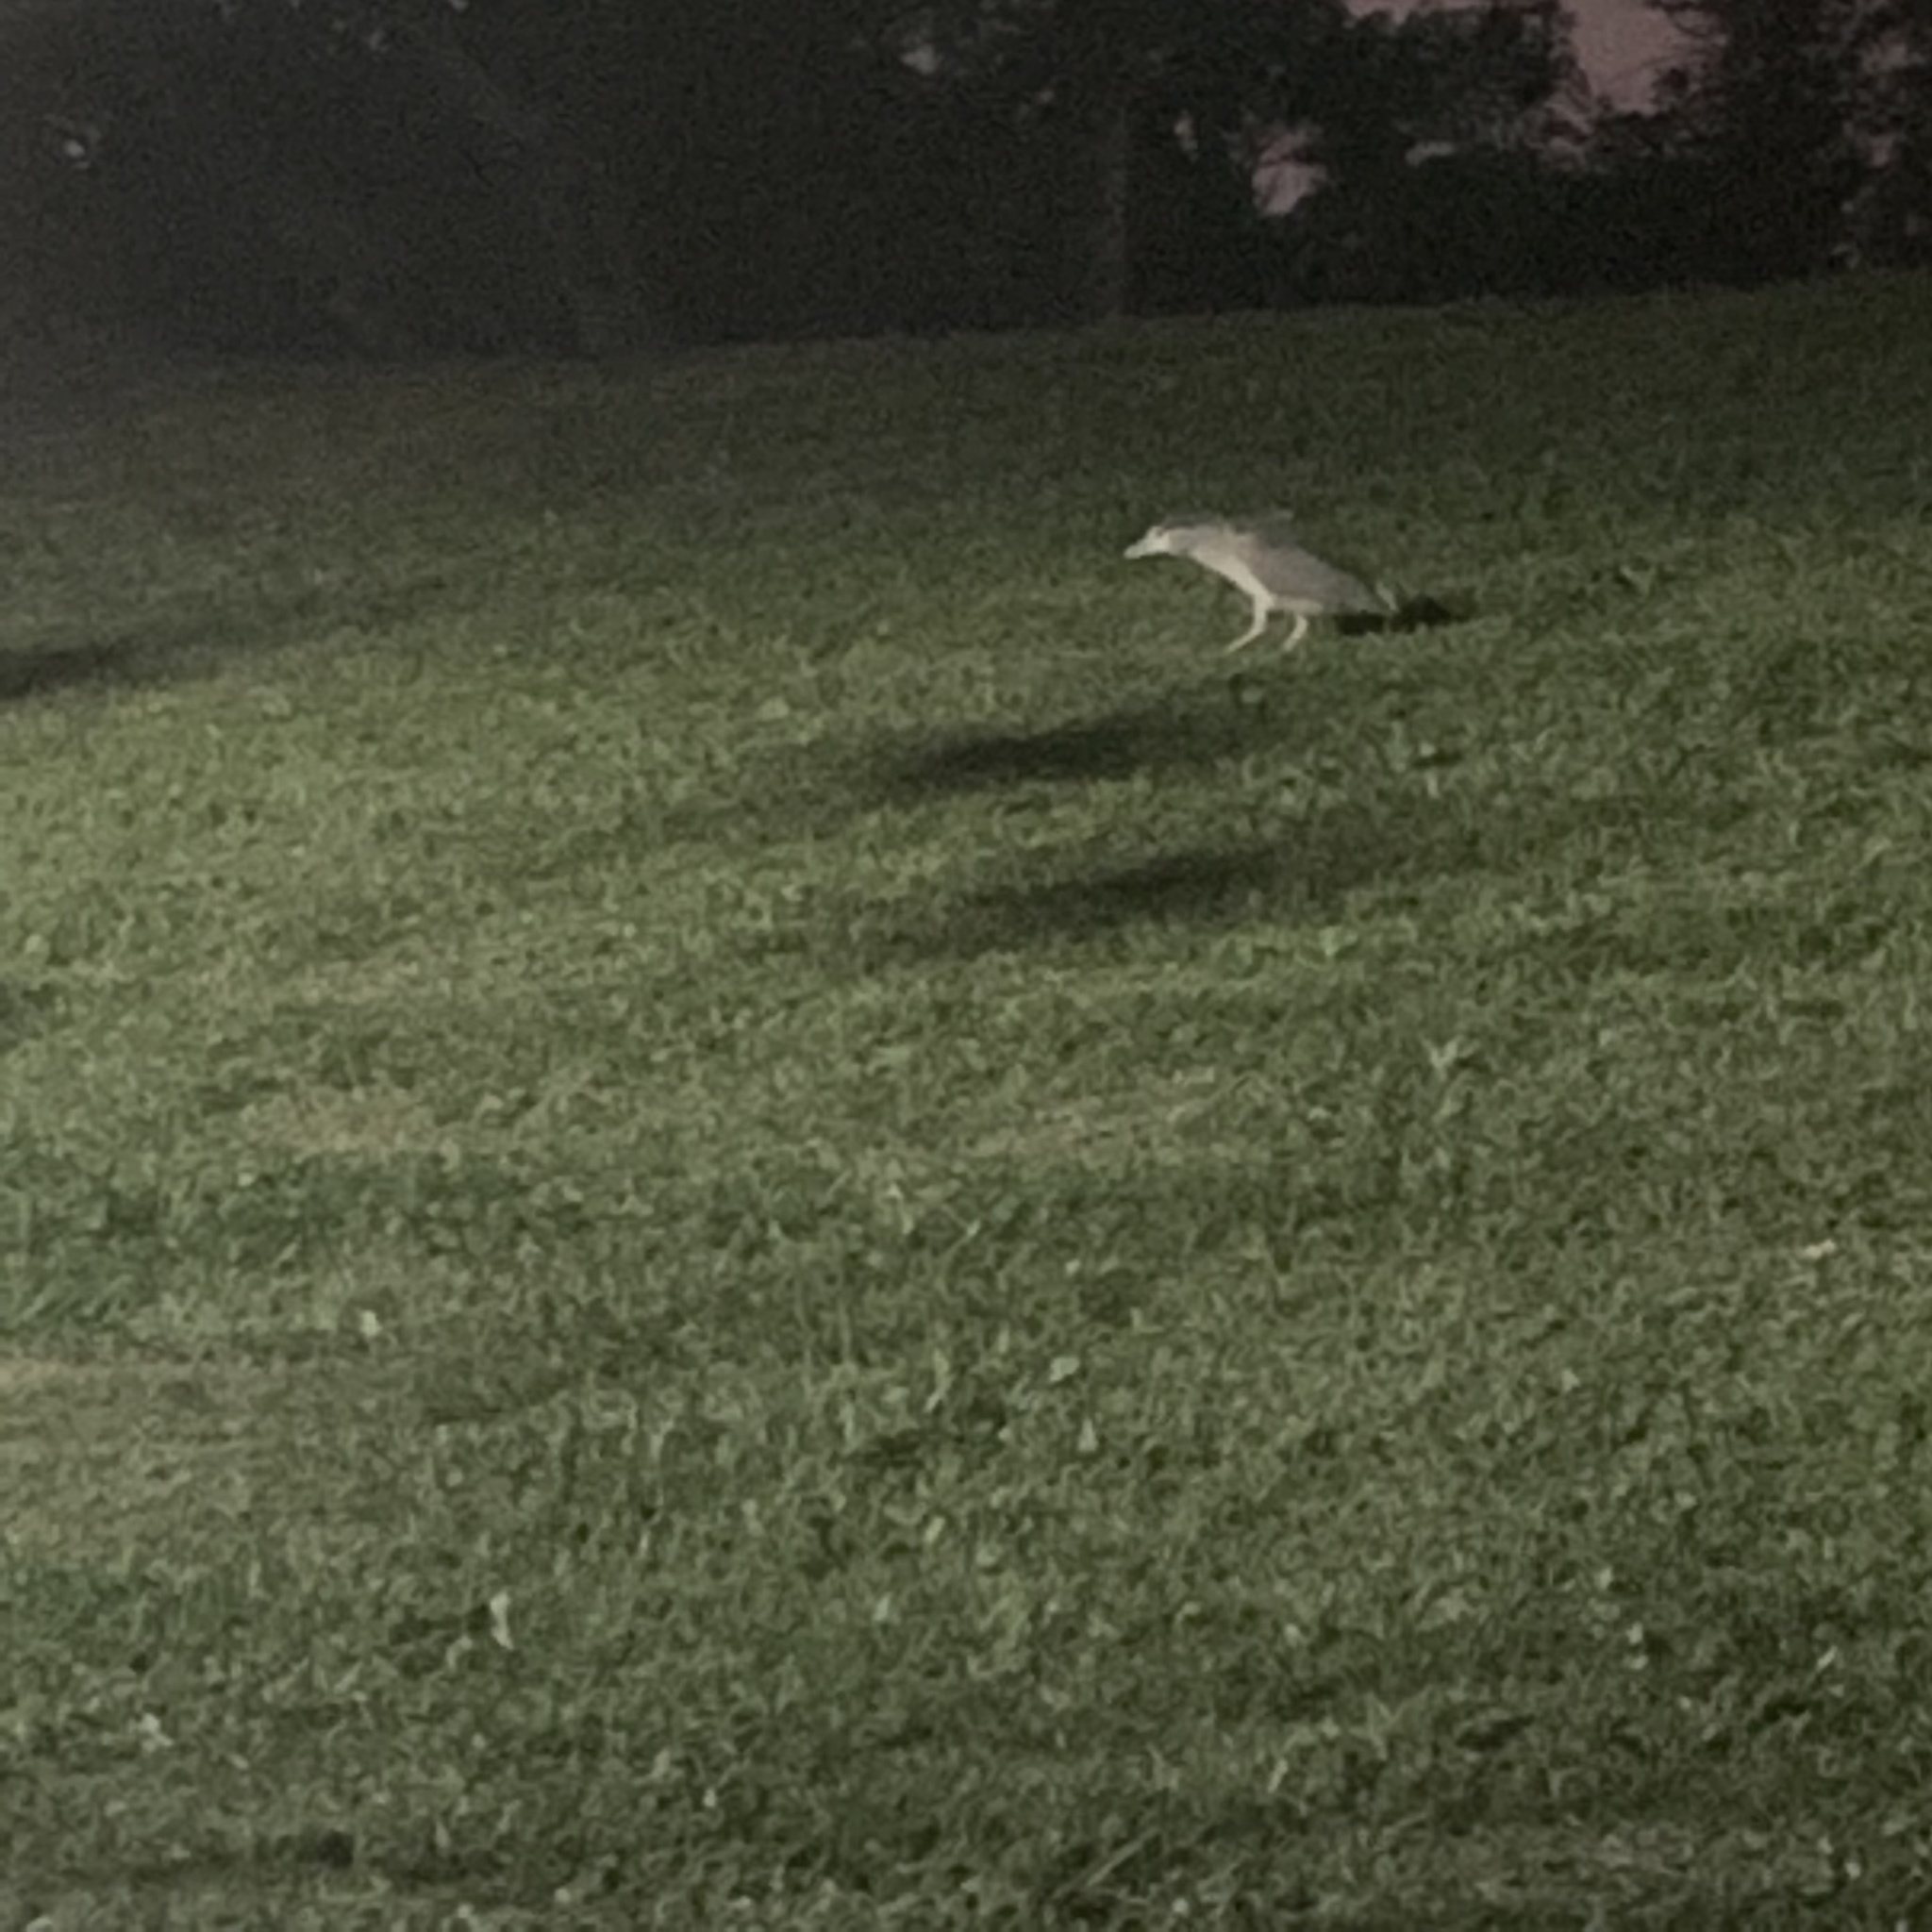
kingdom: Animalia
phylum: Chordata
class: Aves
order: Pelecaniformes
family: Ardeidae
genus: Nycticorax
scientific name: Nycticorax nycticorax
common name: Black-crowned night heron
